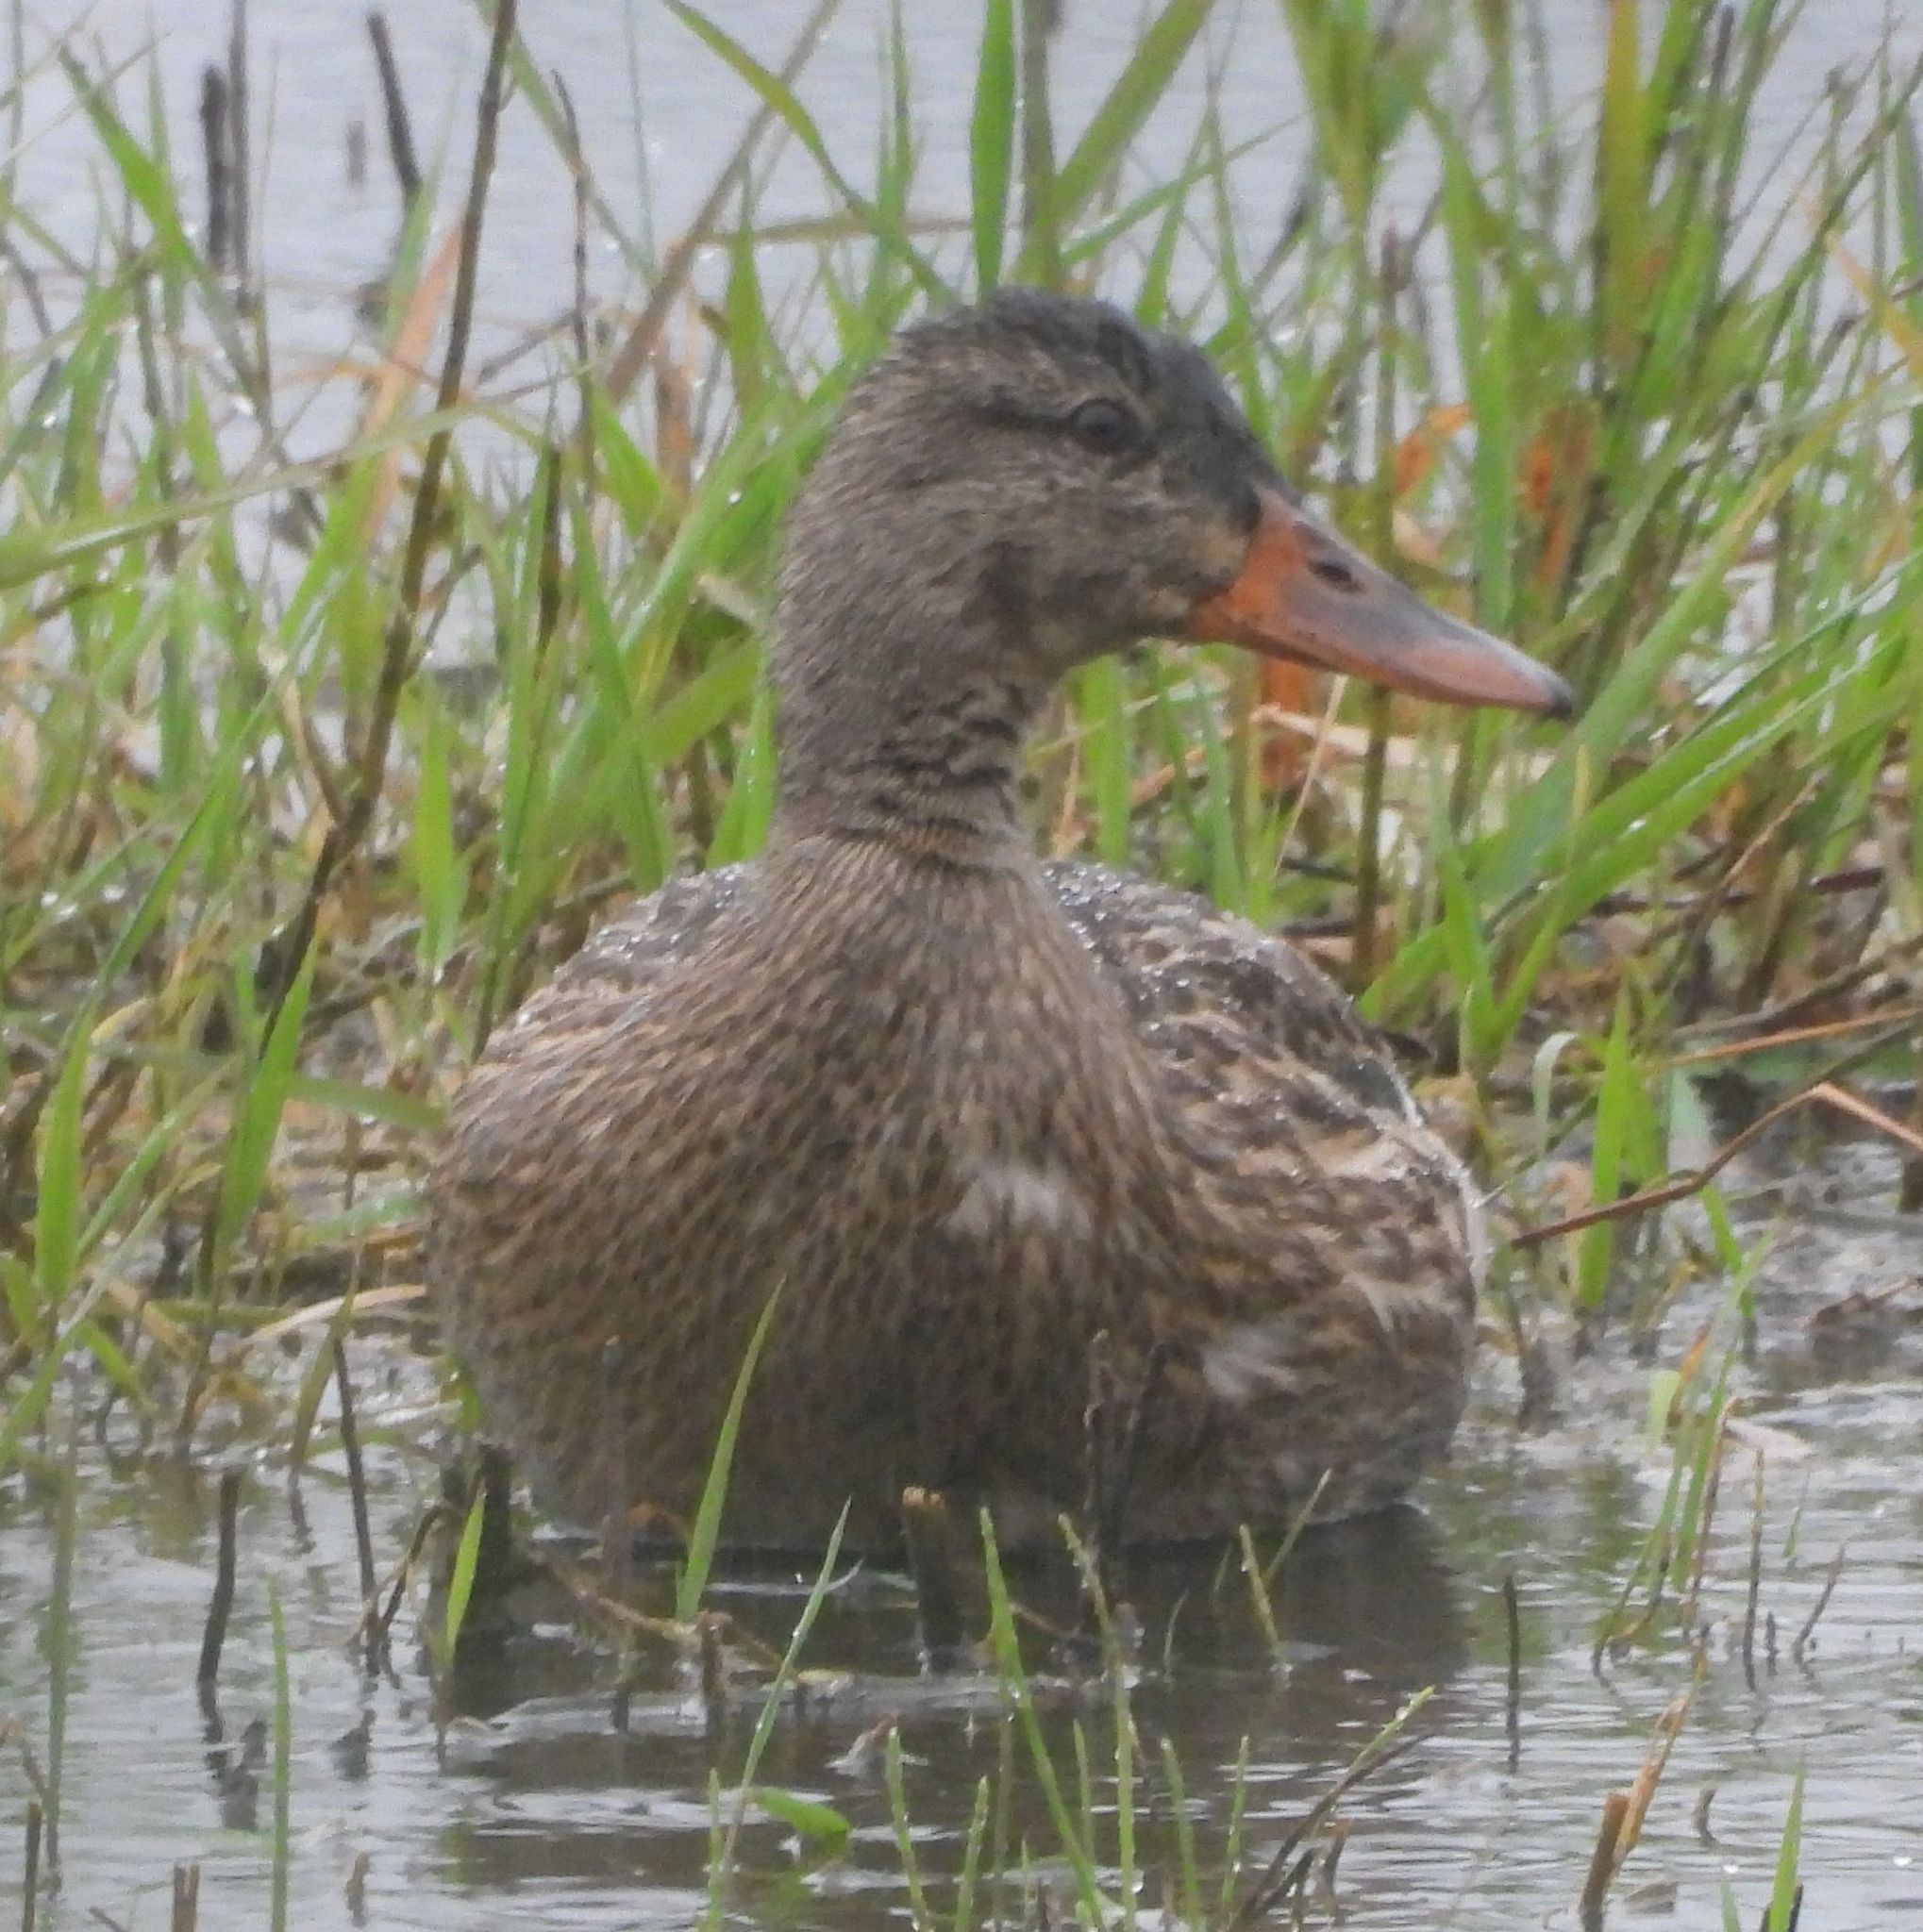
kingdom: Animalia
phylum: Chordata
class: Aves
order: Anseriformes
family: Anatidae
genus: Anas
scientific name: Anas platyrhynchos
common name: Mallard
